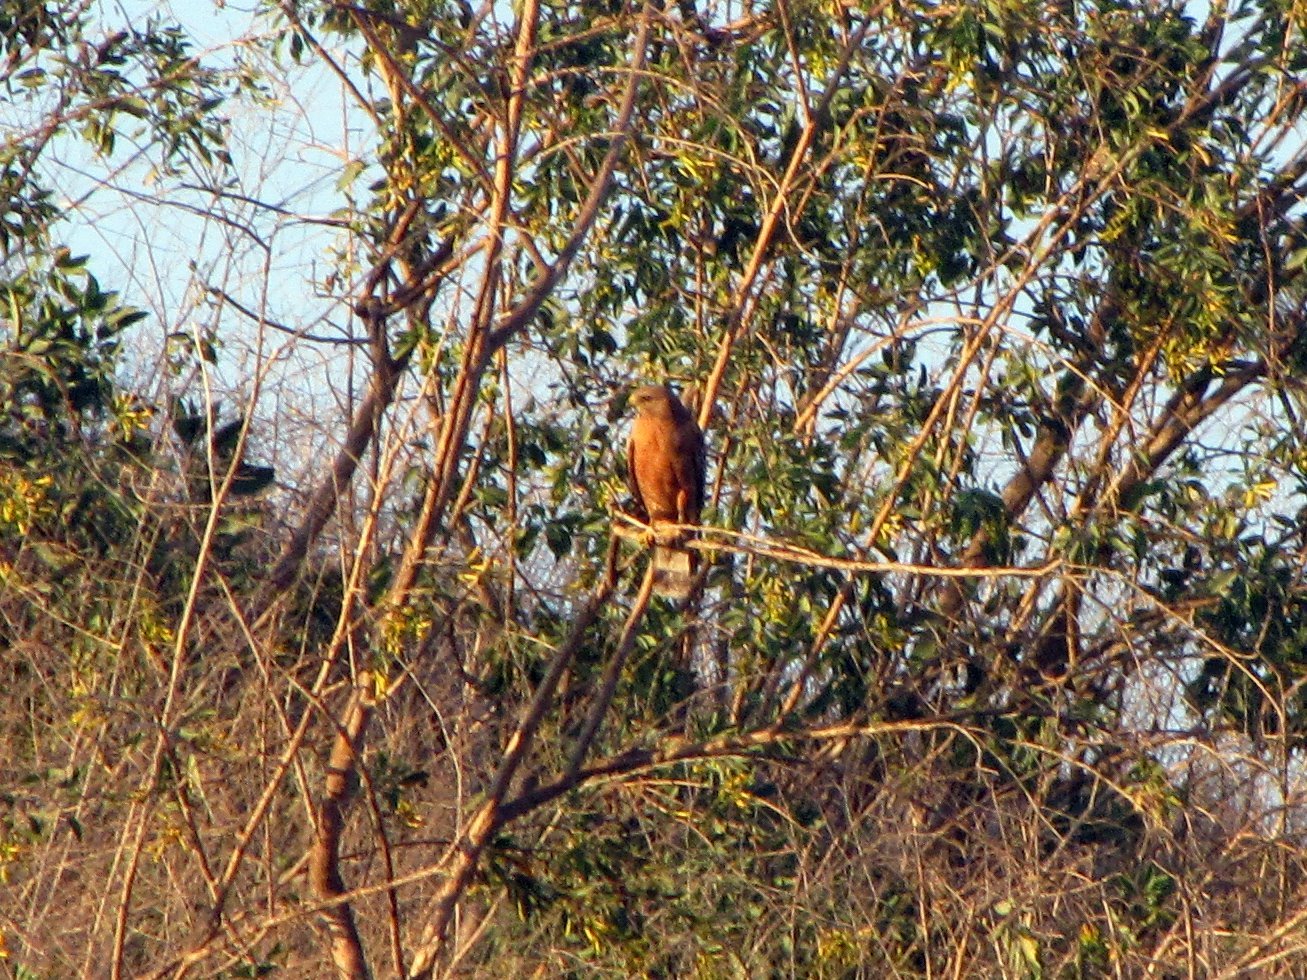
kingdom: Animalia
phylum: Chordata
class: Aves
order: Accipitriformes
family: Accipitridae
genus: Buteo
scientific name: Buteo lineatus
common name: Red-shouldered hawk
